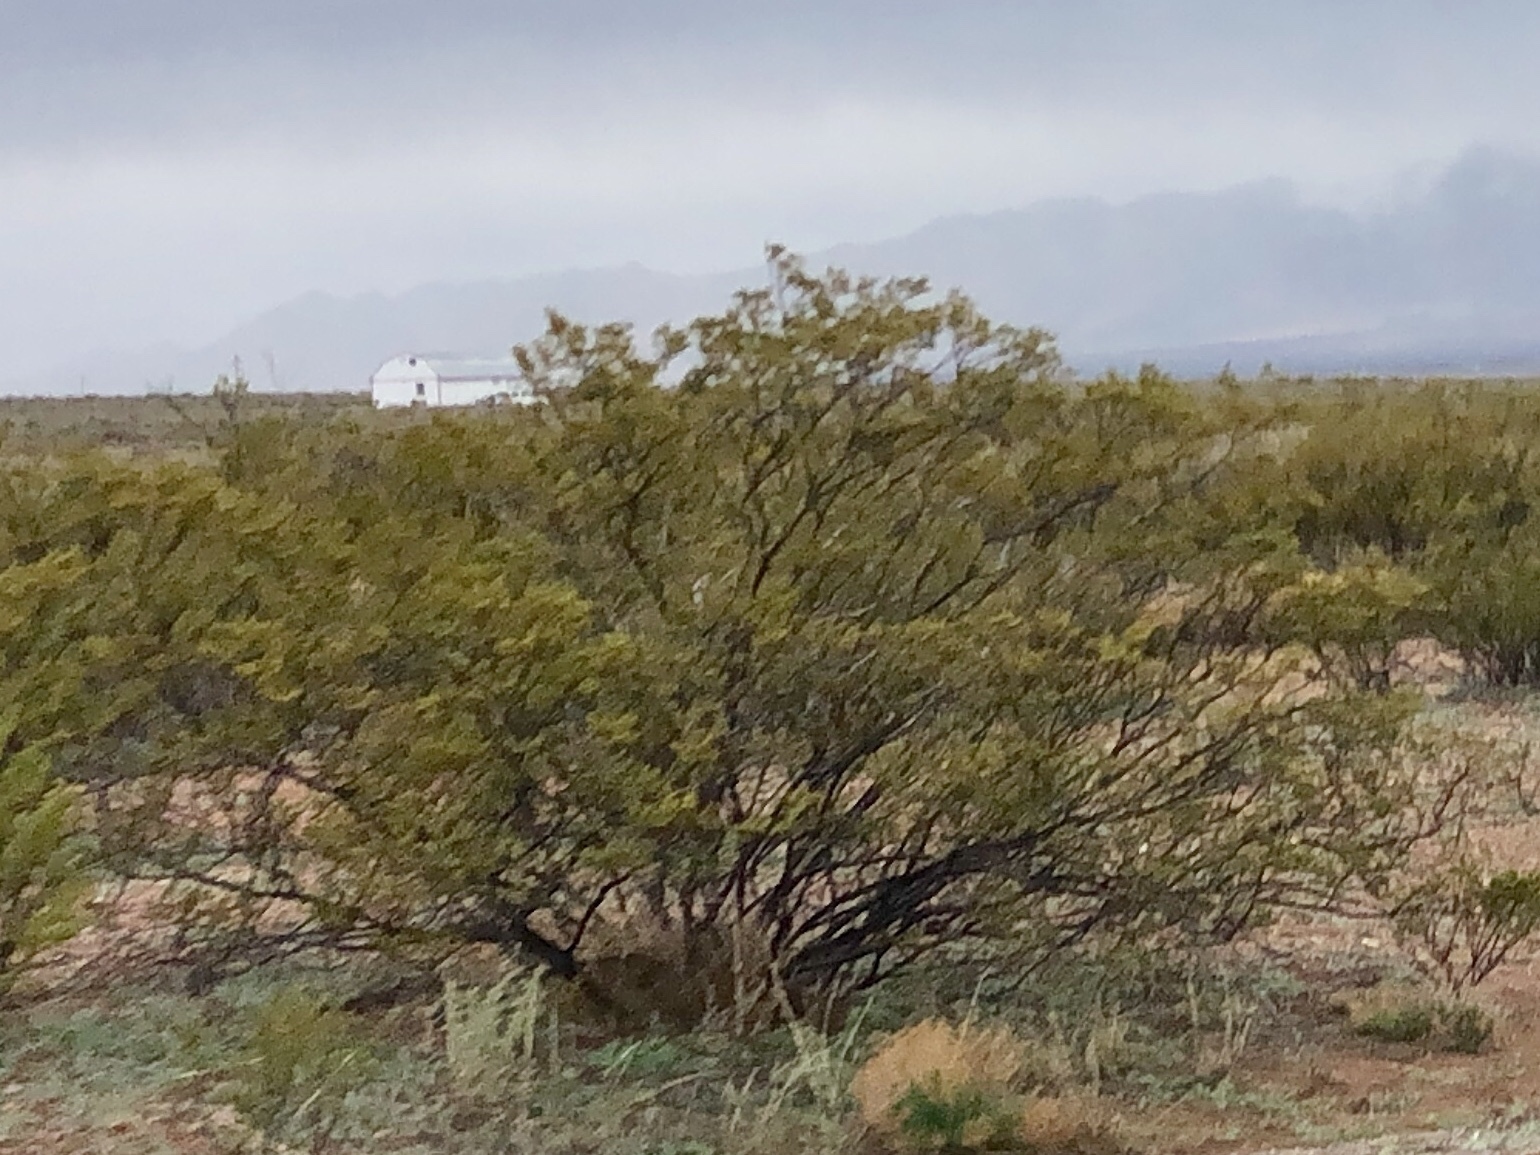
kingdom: Plantae
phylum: Tracheophyta
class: Magnoliopsida
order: Zygophyllales
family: Zygophyllaceae
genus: Larrea
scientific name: Larrea tridentata
